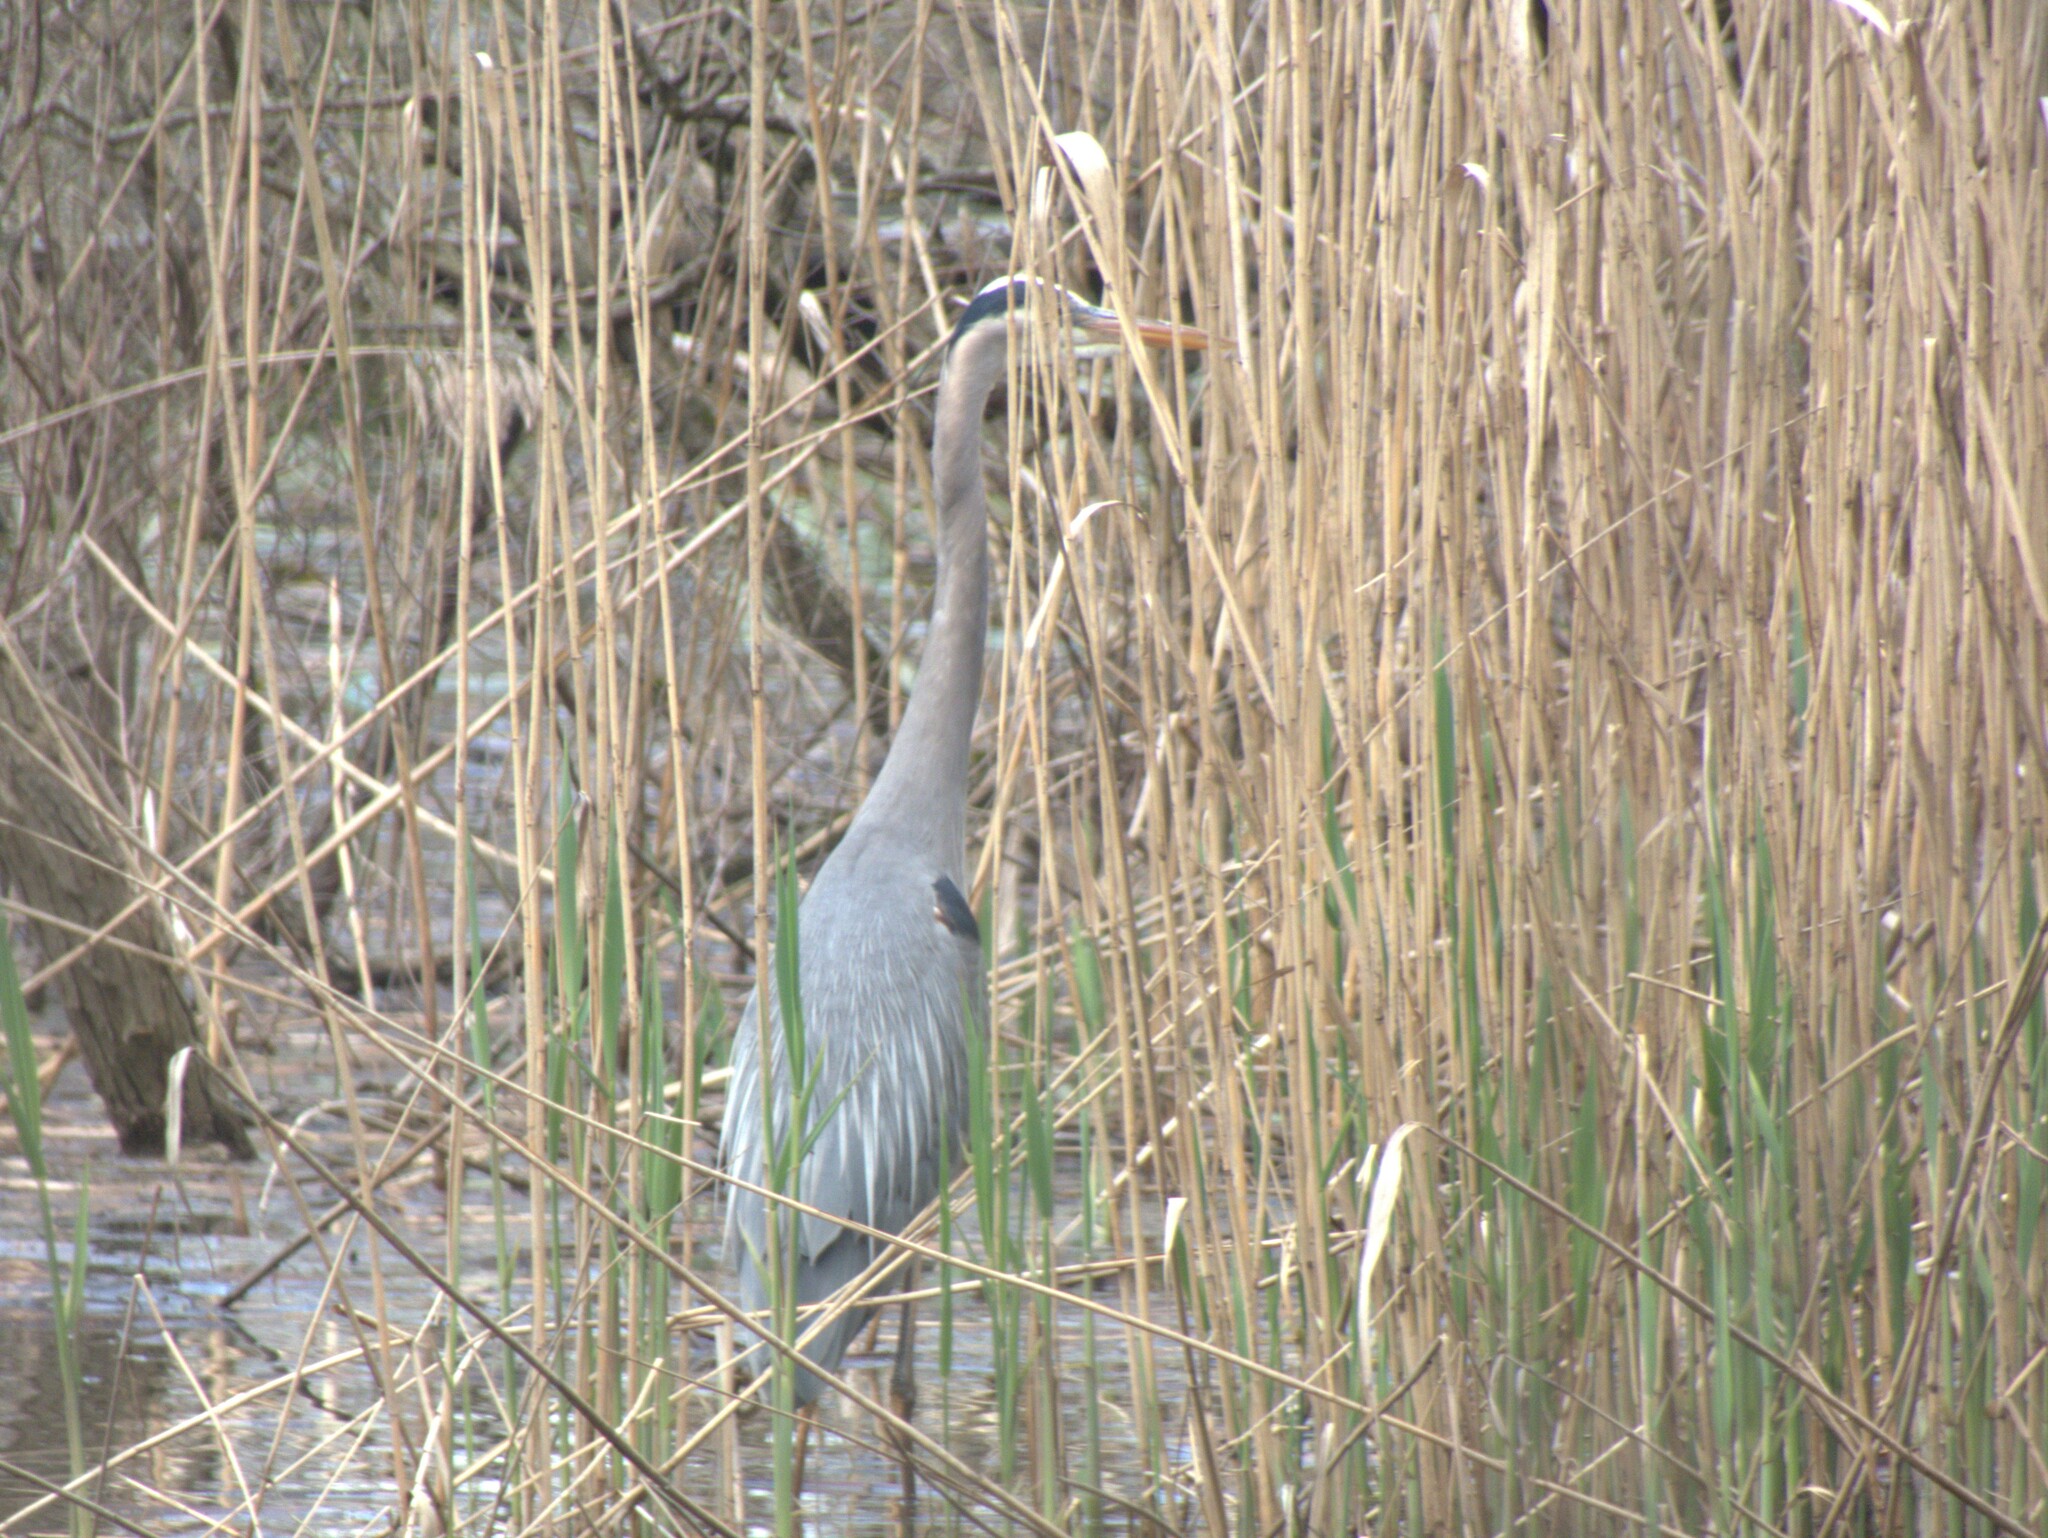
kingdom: Animalia
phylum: Chordata
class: Aves
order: Pelecaniformes
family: Ardeidae
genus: Ardea
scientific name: Ardea herodias
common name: Great blue heron
